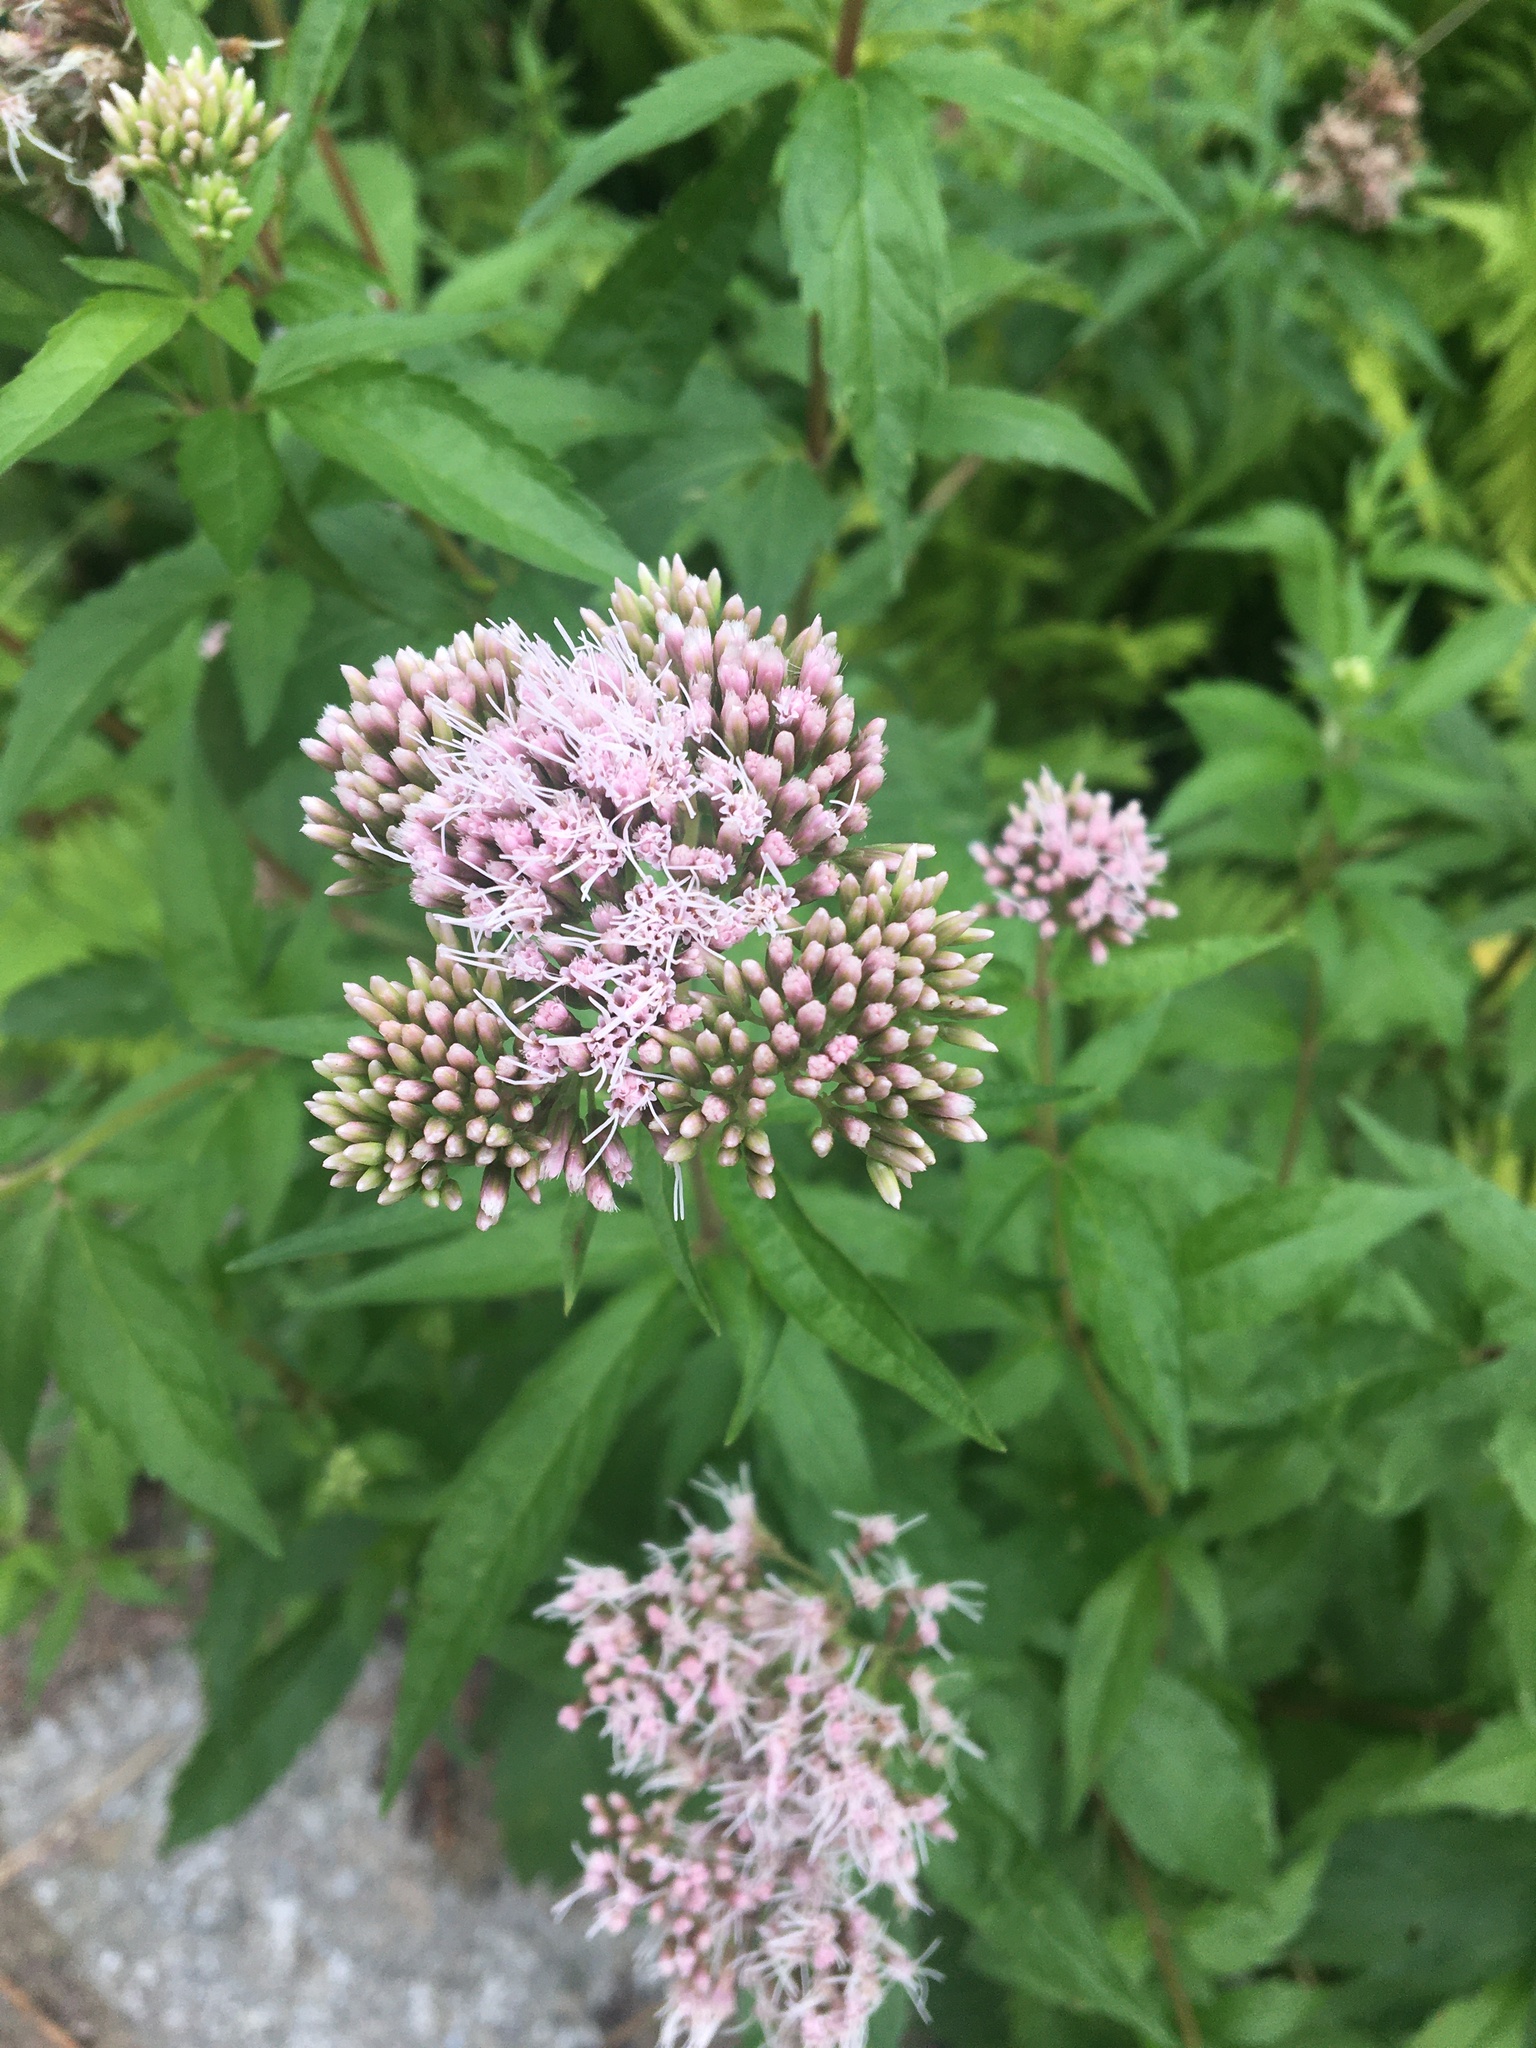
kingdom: Plantae
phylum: Tracheophyta
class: Magnoliopsida
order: Asterales
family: Asteraceae
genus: Eupatorium
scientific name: Eupatorium cannabinum
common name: Hemp-agrimony
